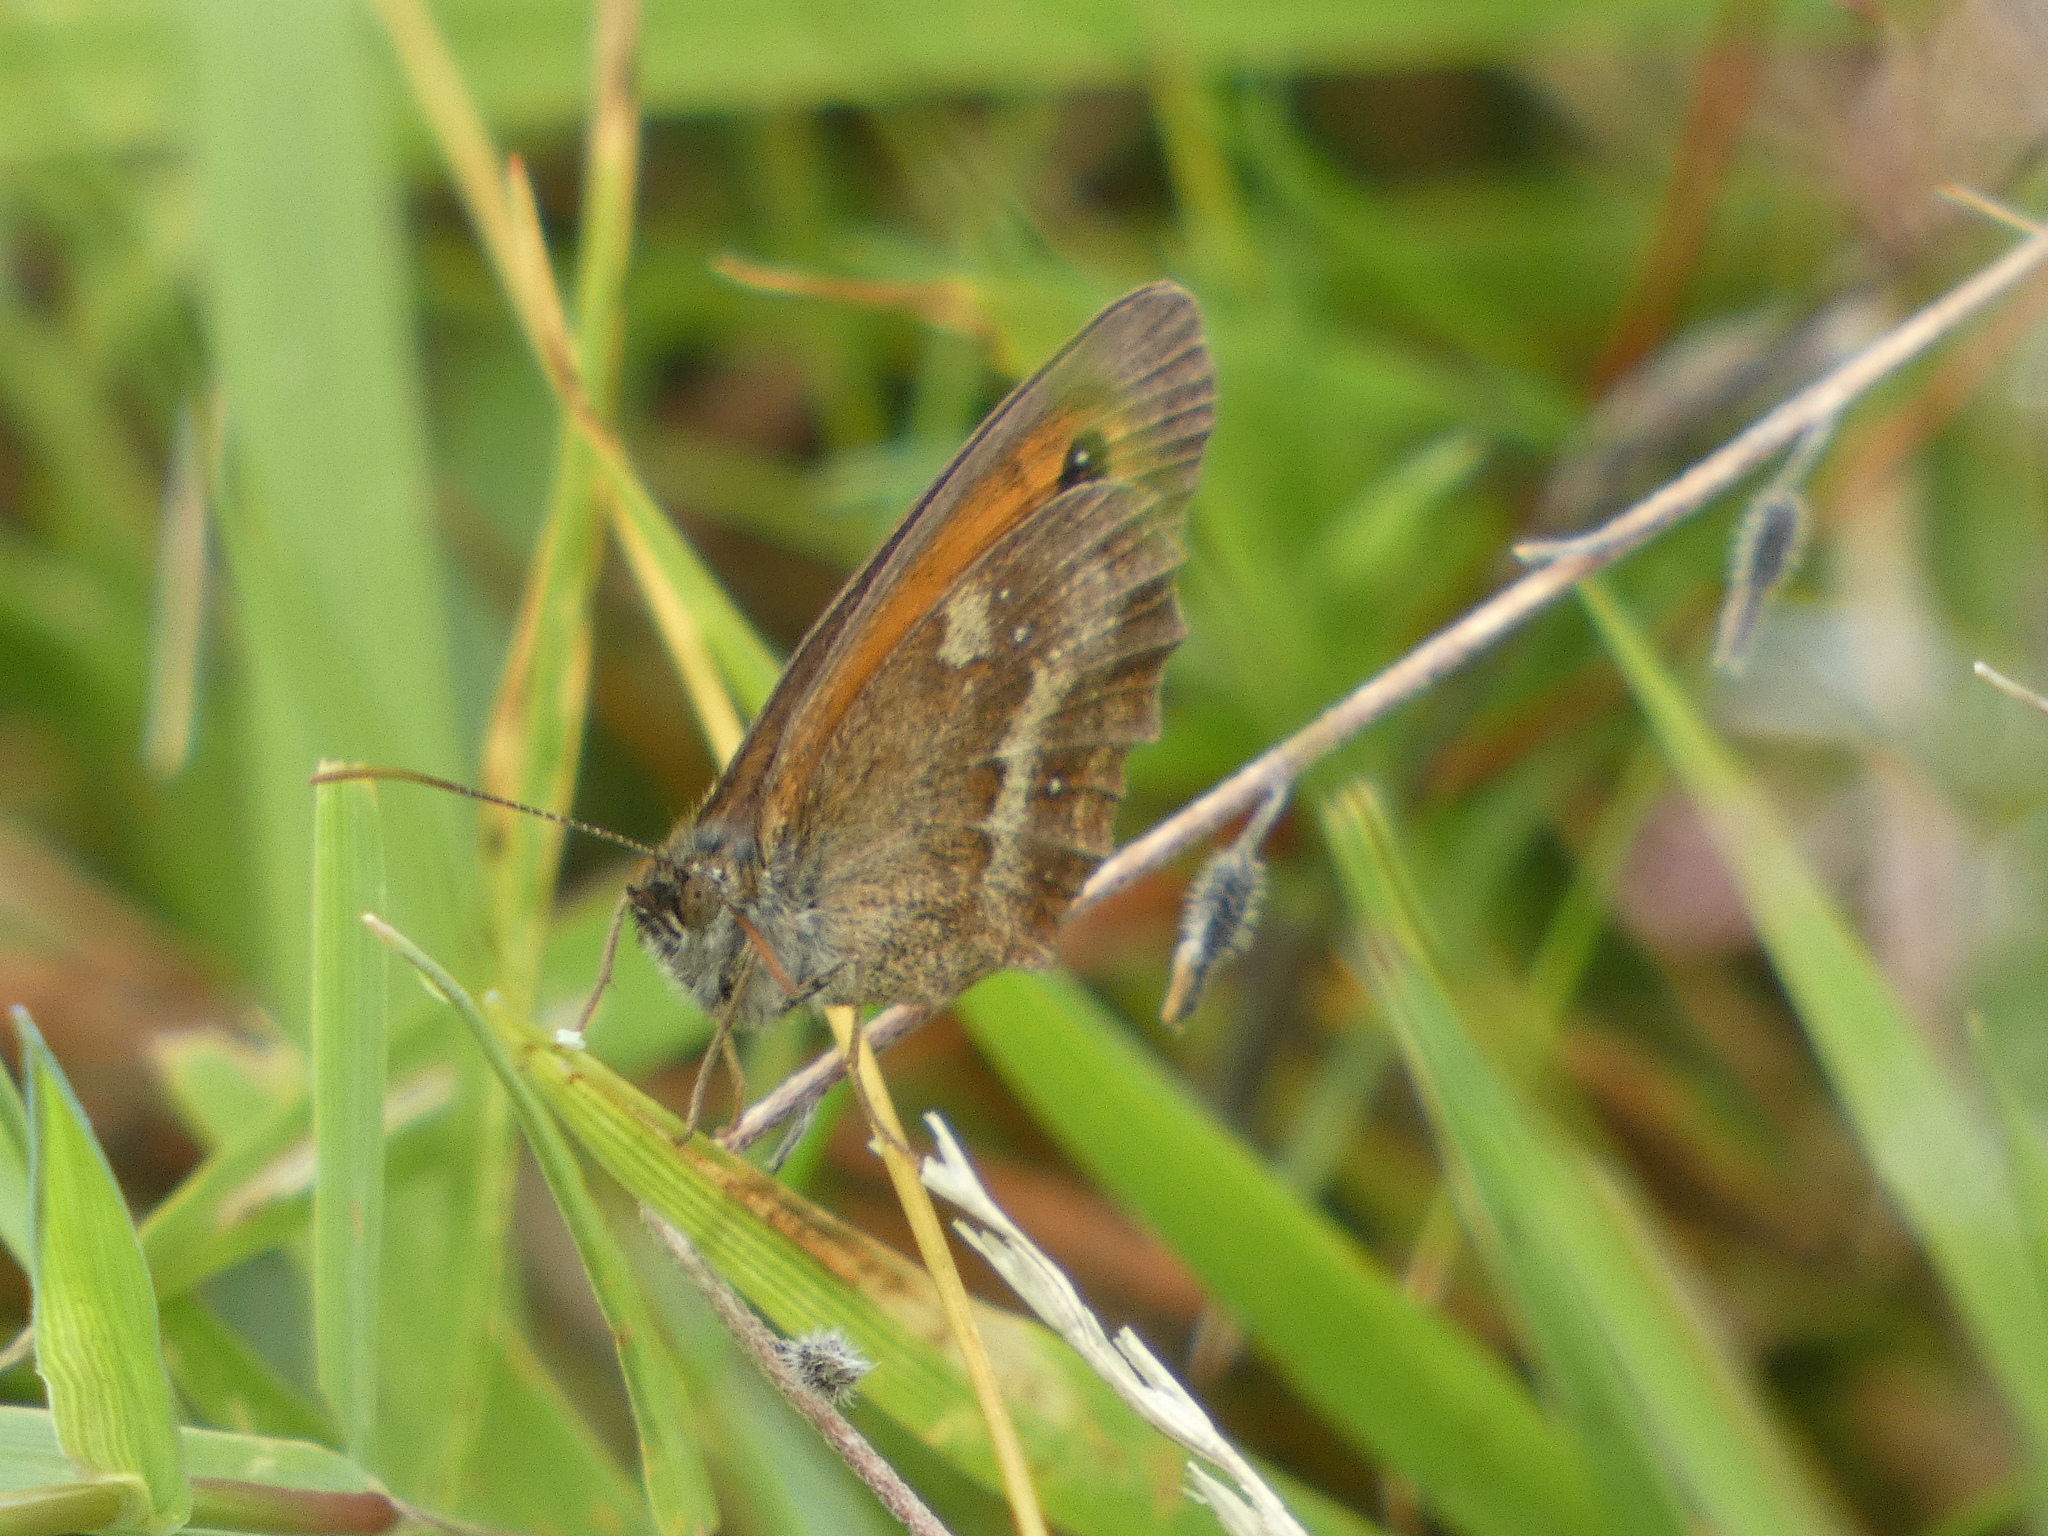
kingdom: Animalia
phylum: Arthropoda
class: Insecta
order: Lepidoptera
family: Nymphalidae
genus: Pyronia
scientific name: Pyronia tithonus
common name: Gatekeeper
